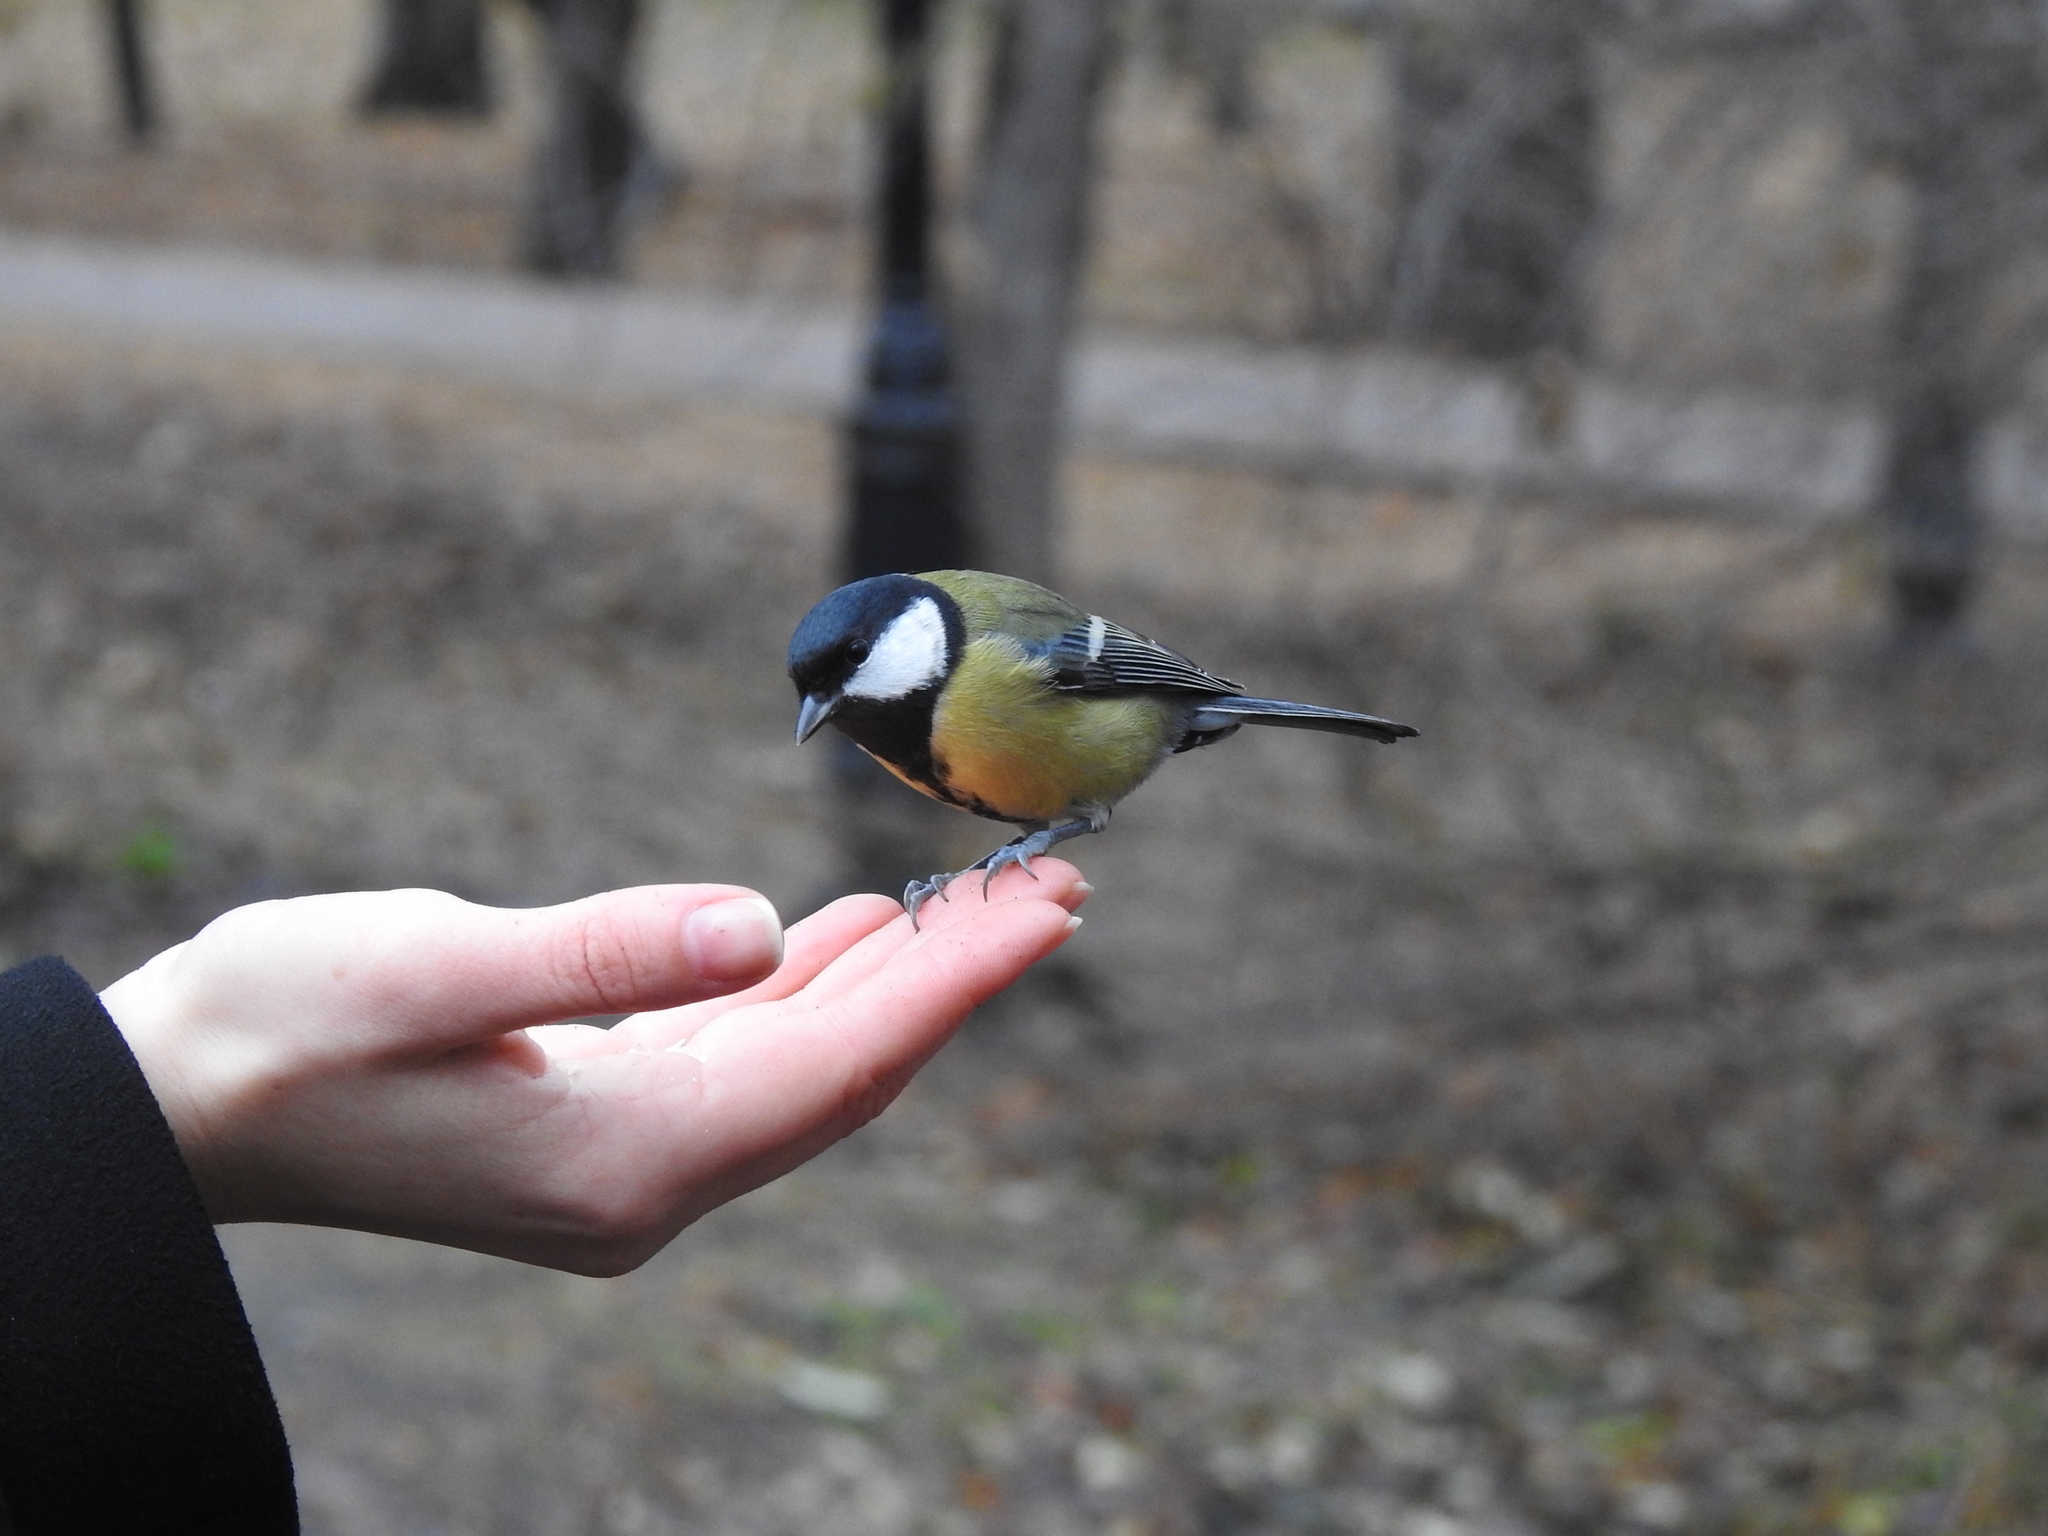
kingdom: Animalia
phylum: Chordata
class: Aves
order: Passeriformes
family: Paridae
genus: Parus
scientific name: Parus major
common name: Great tit
